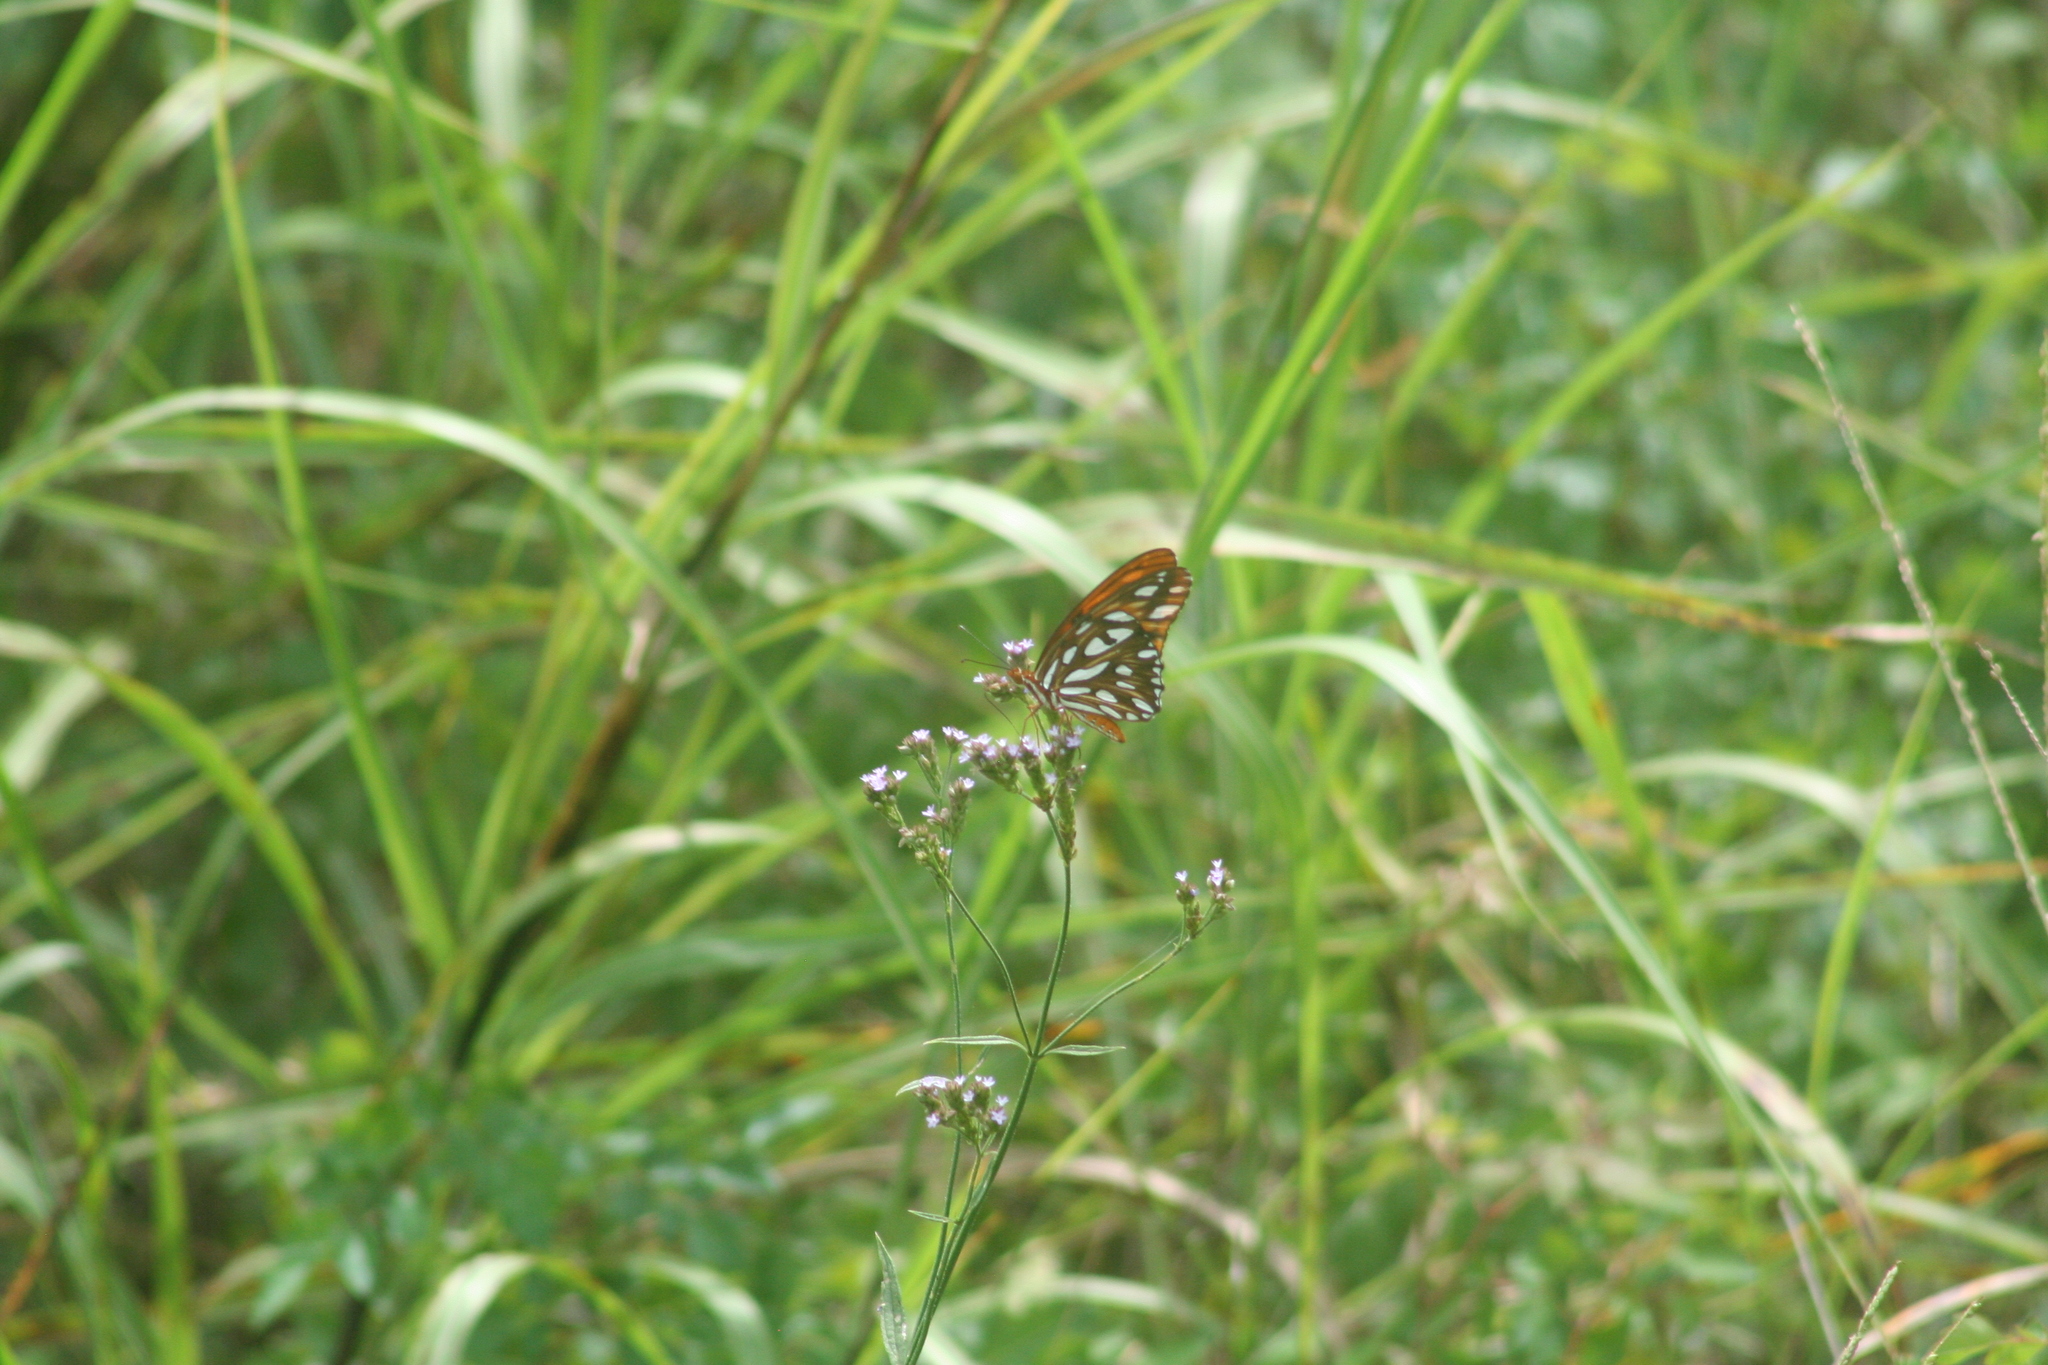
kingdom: Animalia
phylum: Arthropoda
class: Insecta
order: Lepidoptera
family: Nymphalidae
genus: Dione
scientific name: Dione vanillae
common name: Gulf fritillary
